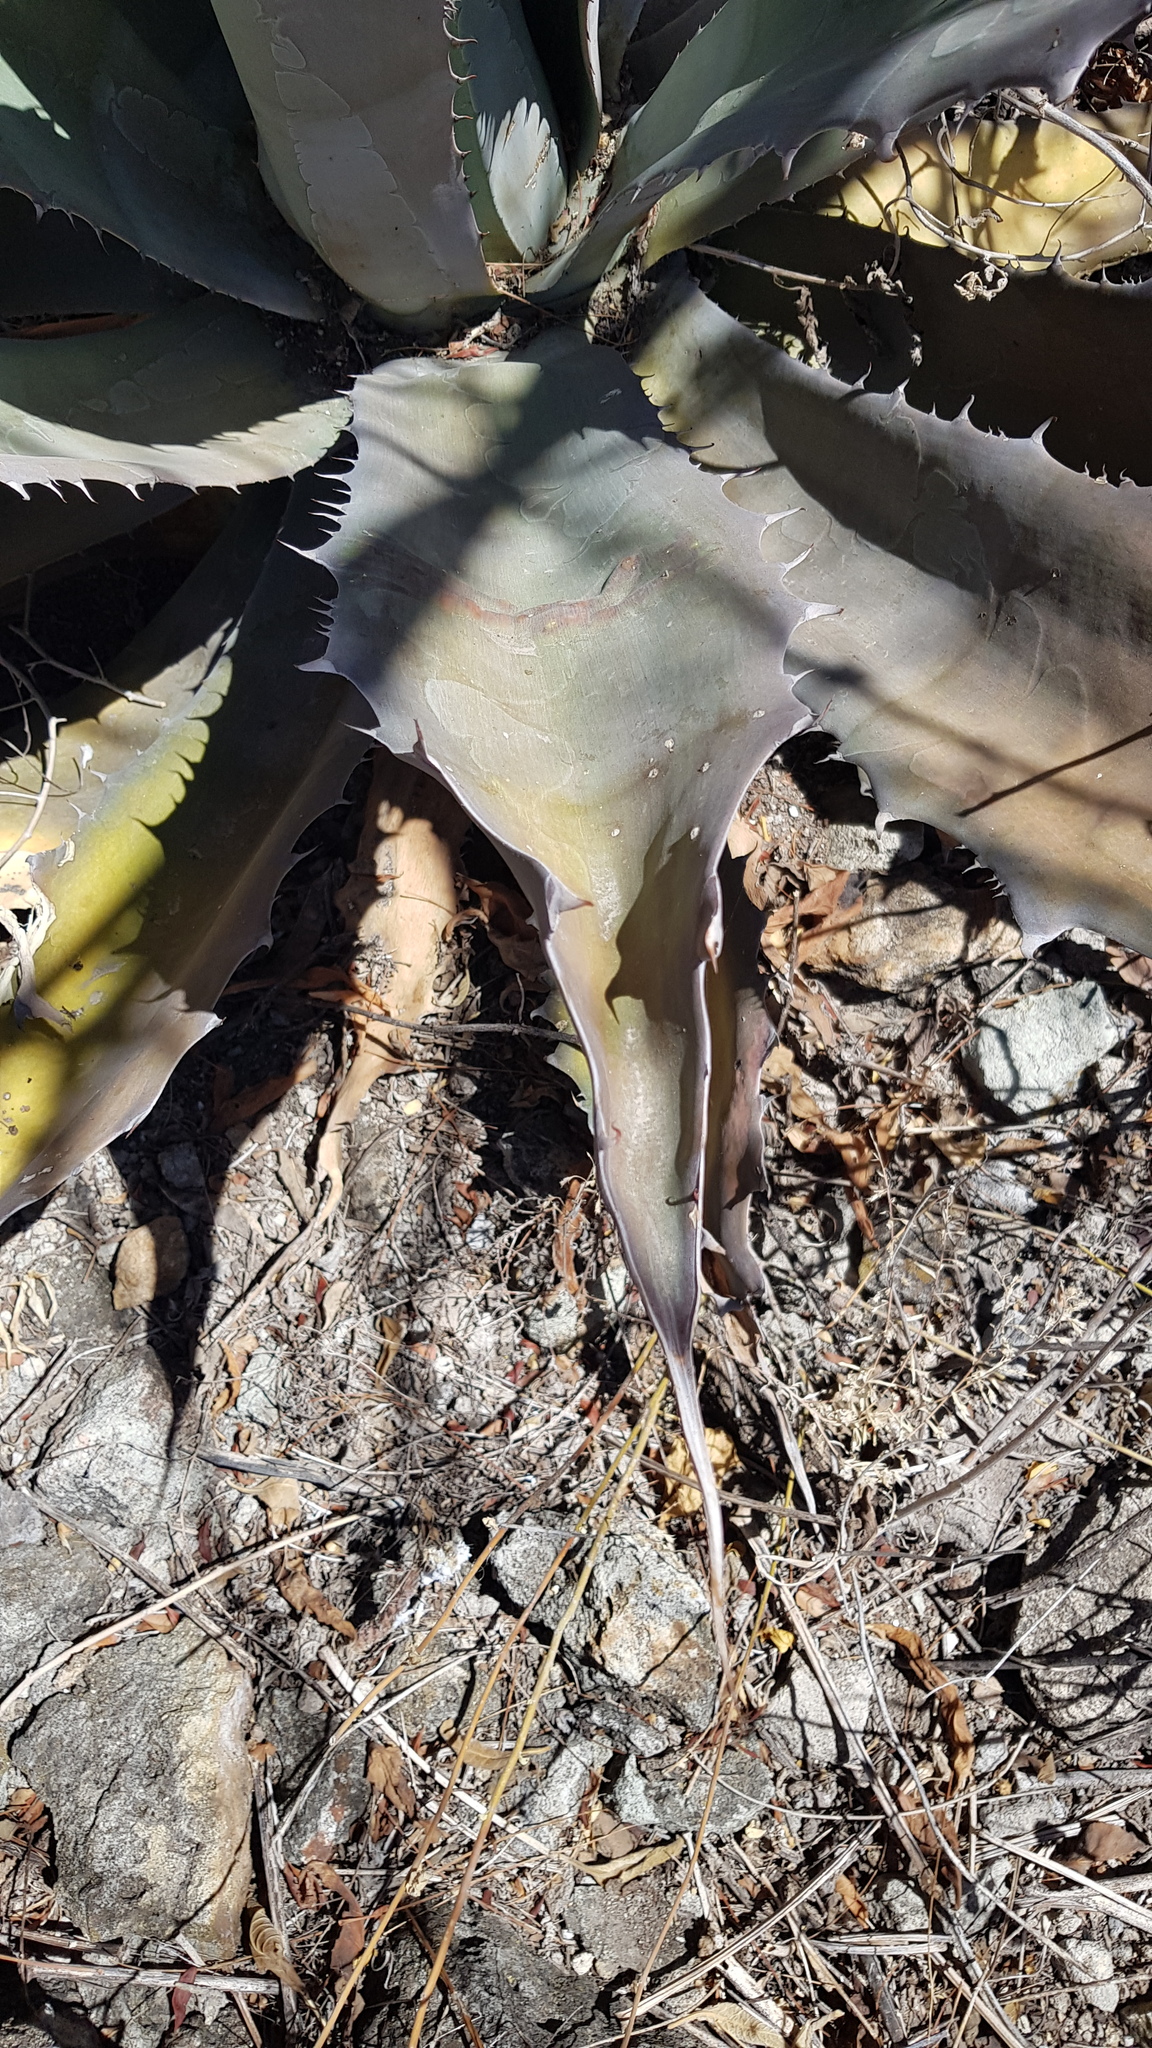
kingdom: Plantae
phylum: Tracheophyta
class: Liliopsida
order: Asparagales
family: Asparagaceae
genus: Agave
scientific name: Agave seemanniana
